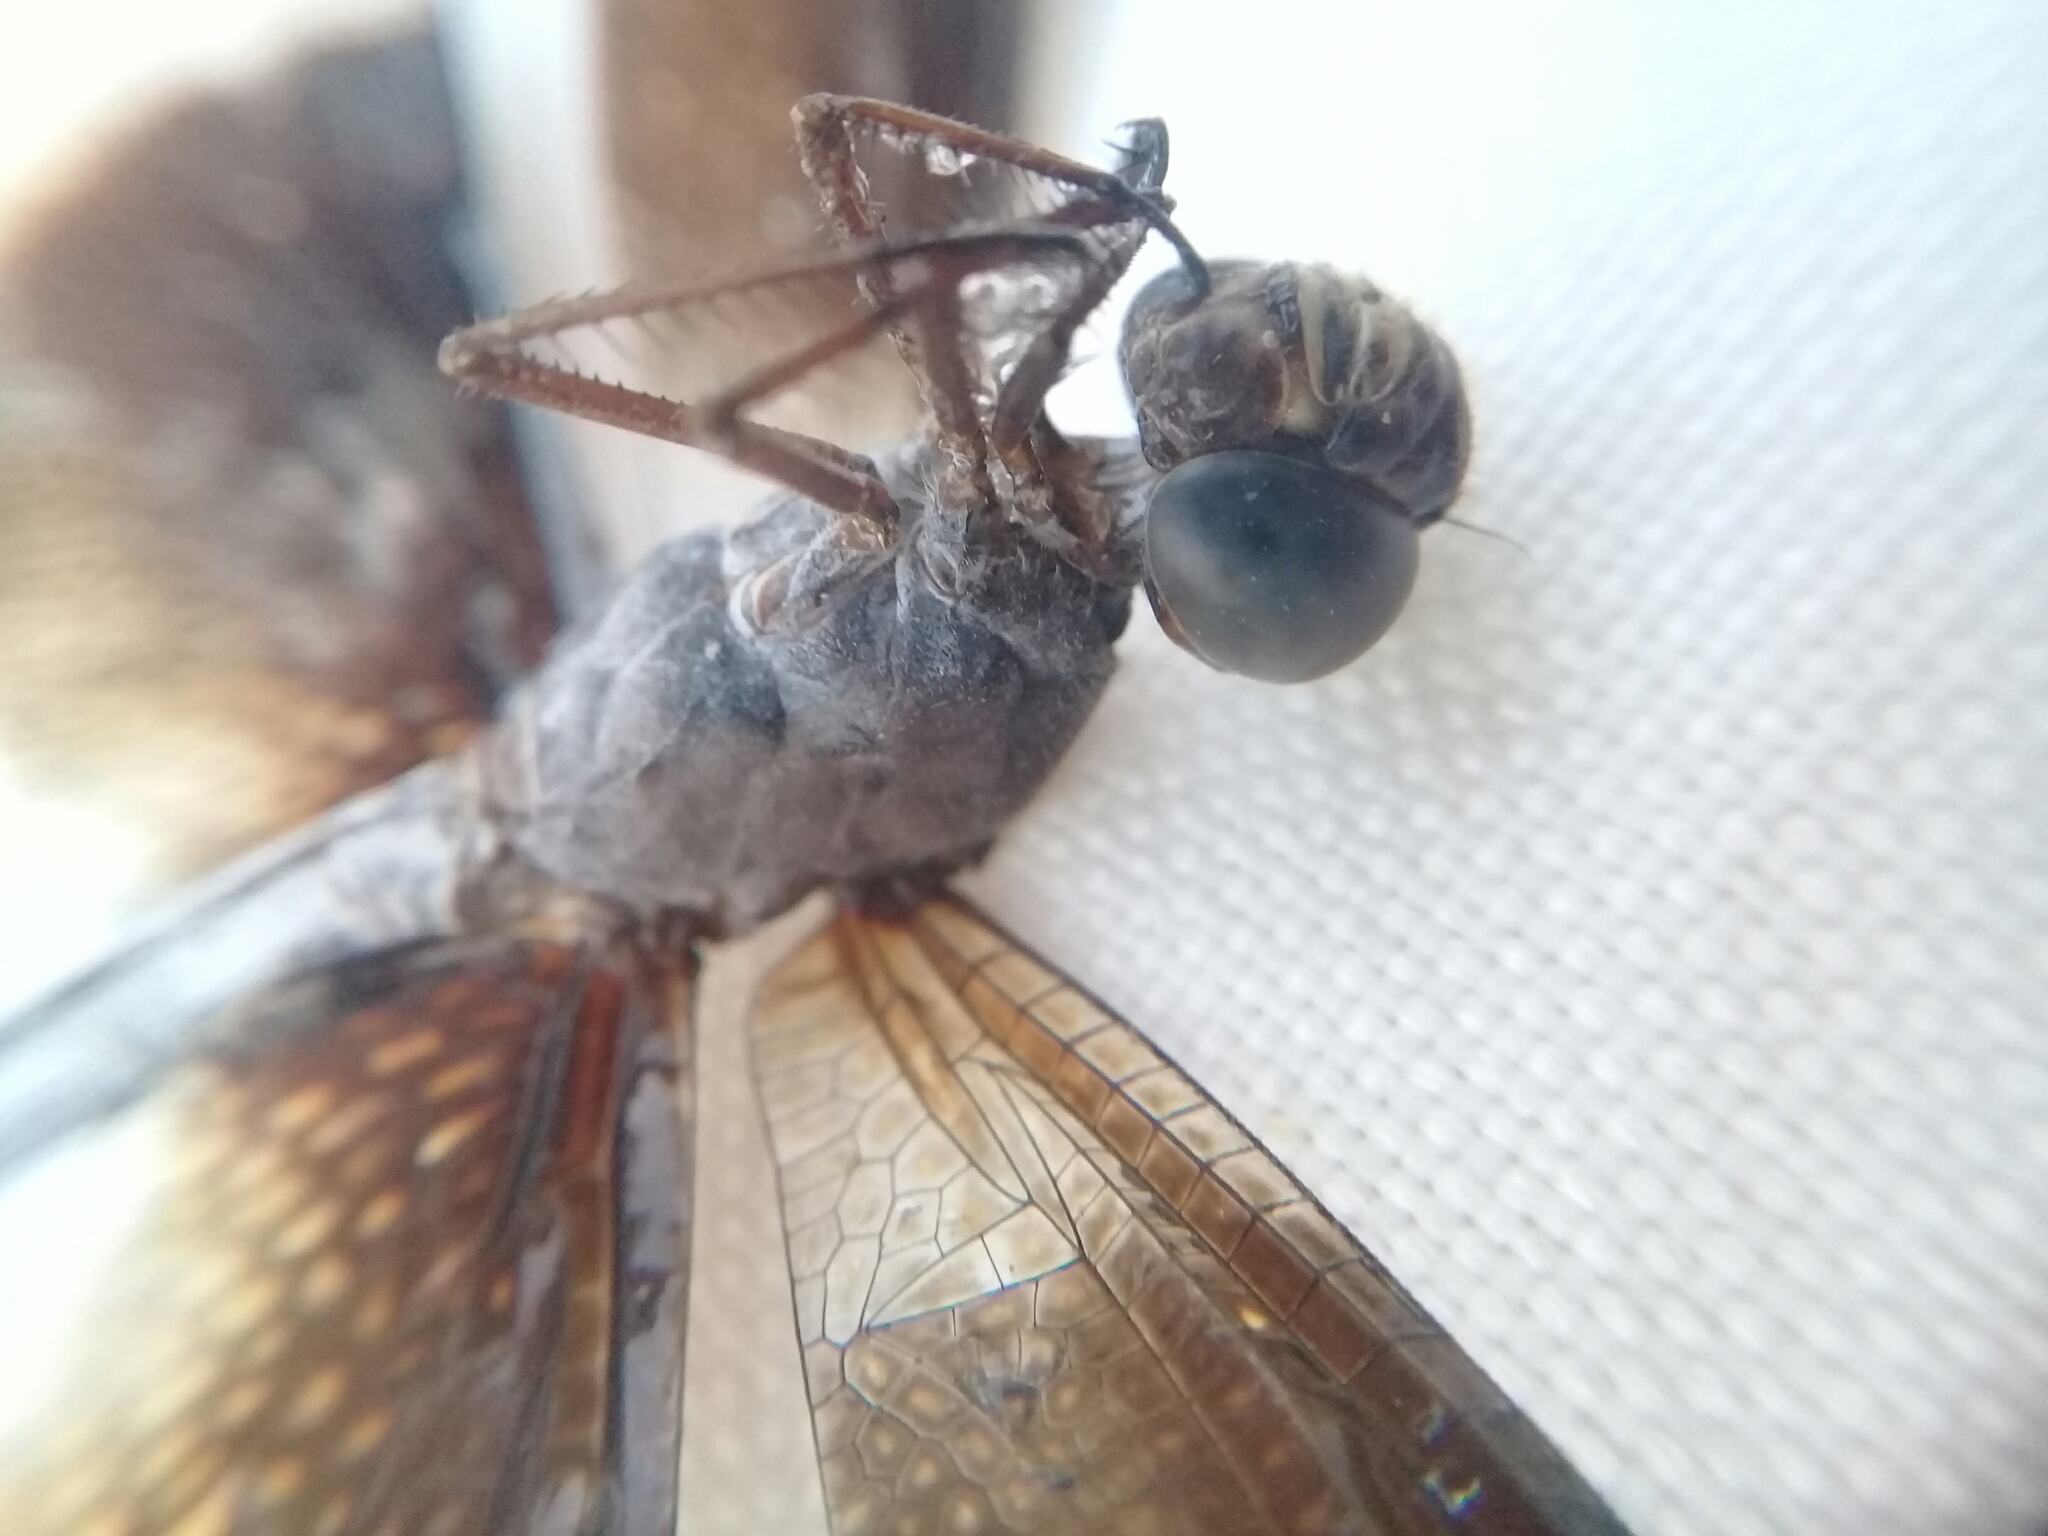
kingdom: Animalia
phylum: Arthropoda
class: Insecta
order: Odonata
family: Libellulidae
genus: Erythrodiplax
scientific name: Erythrodiplax funerea
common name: Black-winged dragonlet
